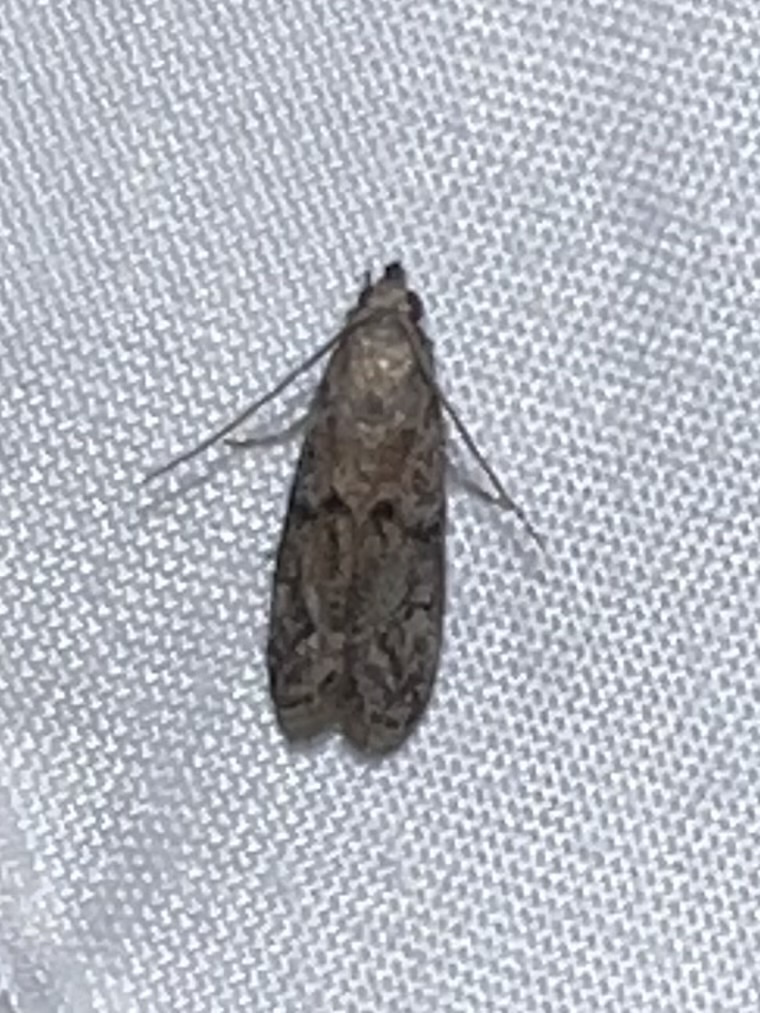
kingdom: Animalia
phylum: Arthropoda
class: Insecta
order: Lepidoptera
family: Pyralidae
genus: Vitula
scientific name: Vitula edmandsii
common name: Dried fruit moth
